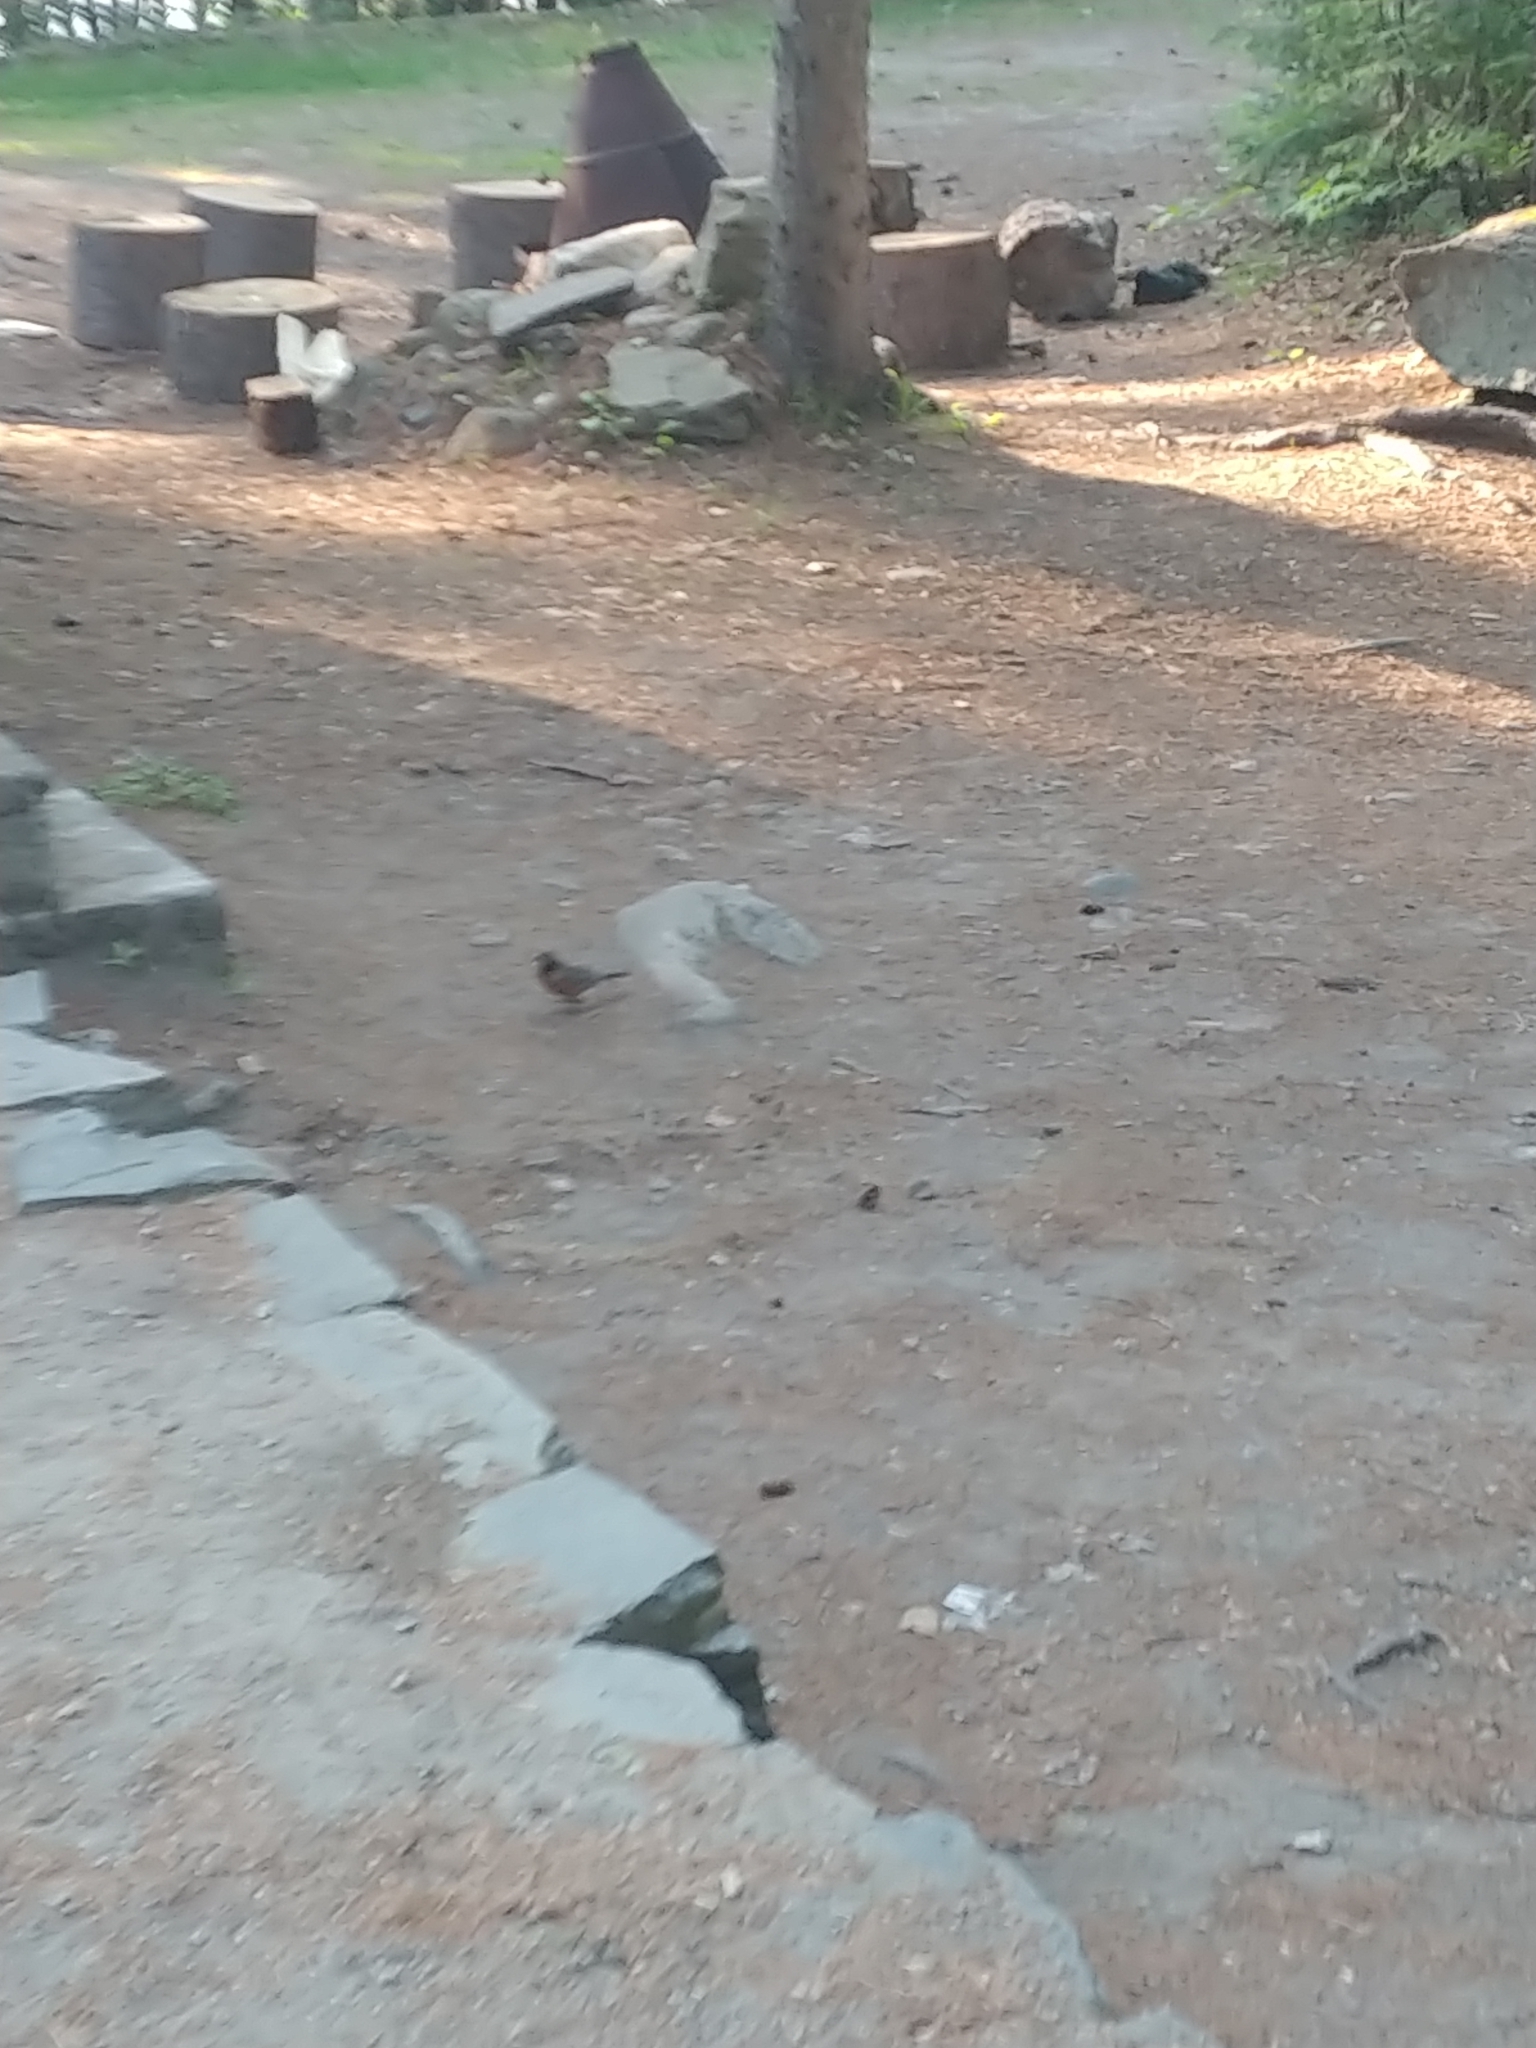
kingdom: Animalia
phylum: Chordata
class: Aves
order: Passeriformes
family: Turdidae
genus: Turdus
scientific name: Turdus migratorius
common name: American robin
